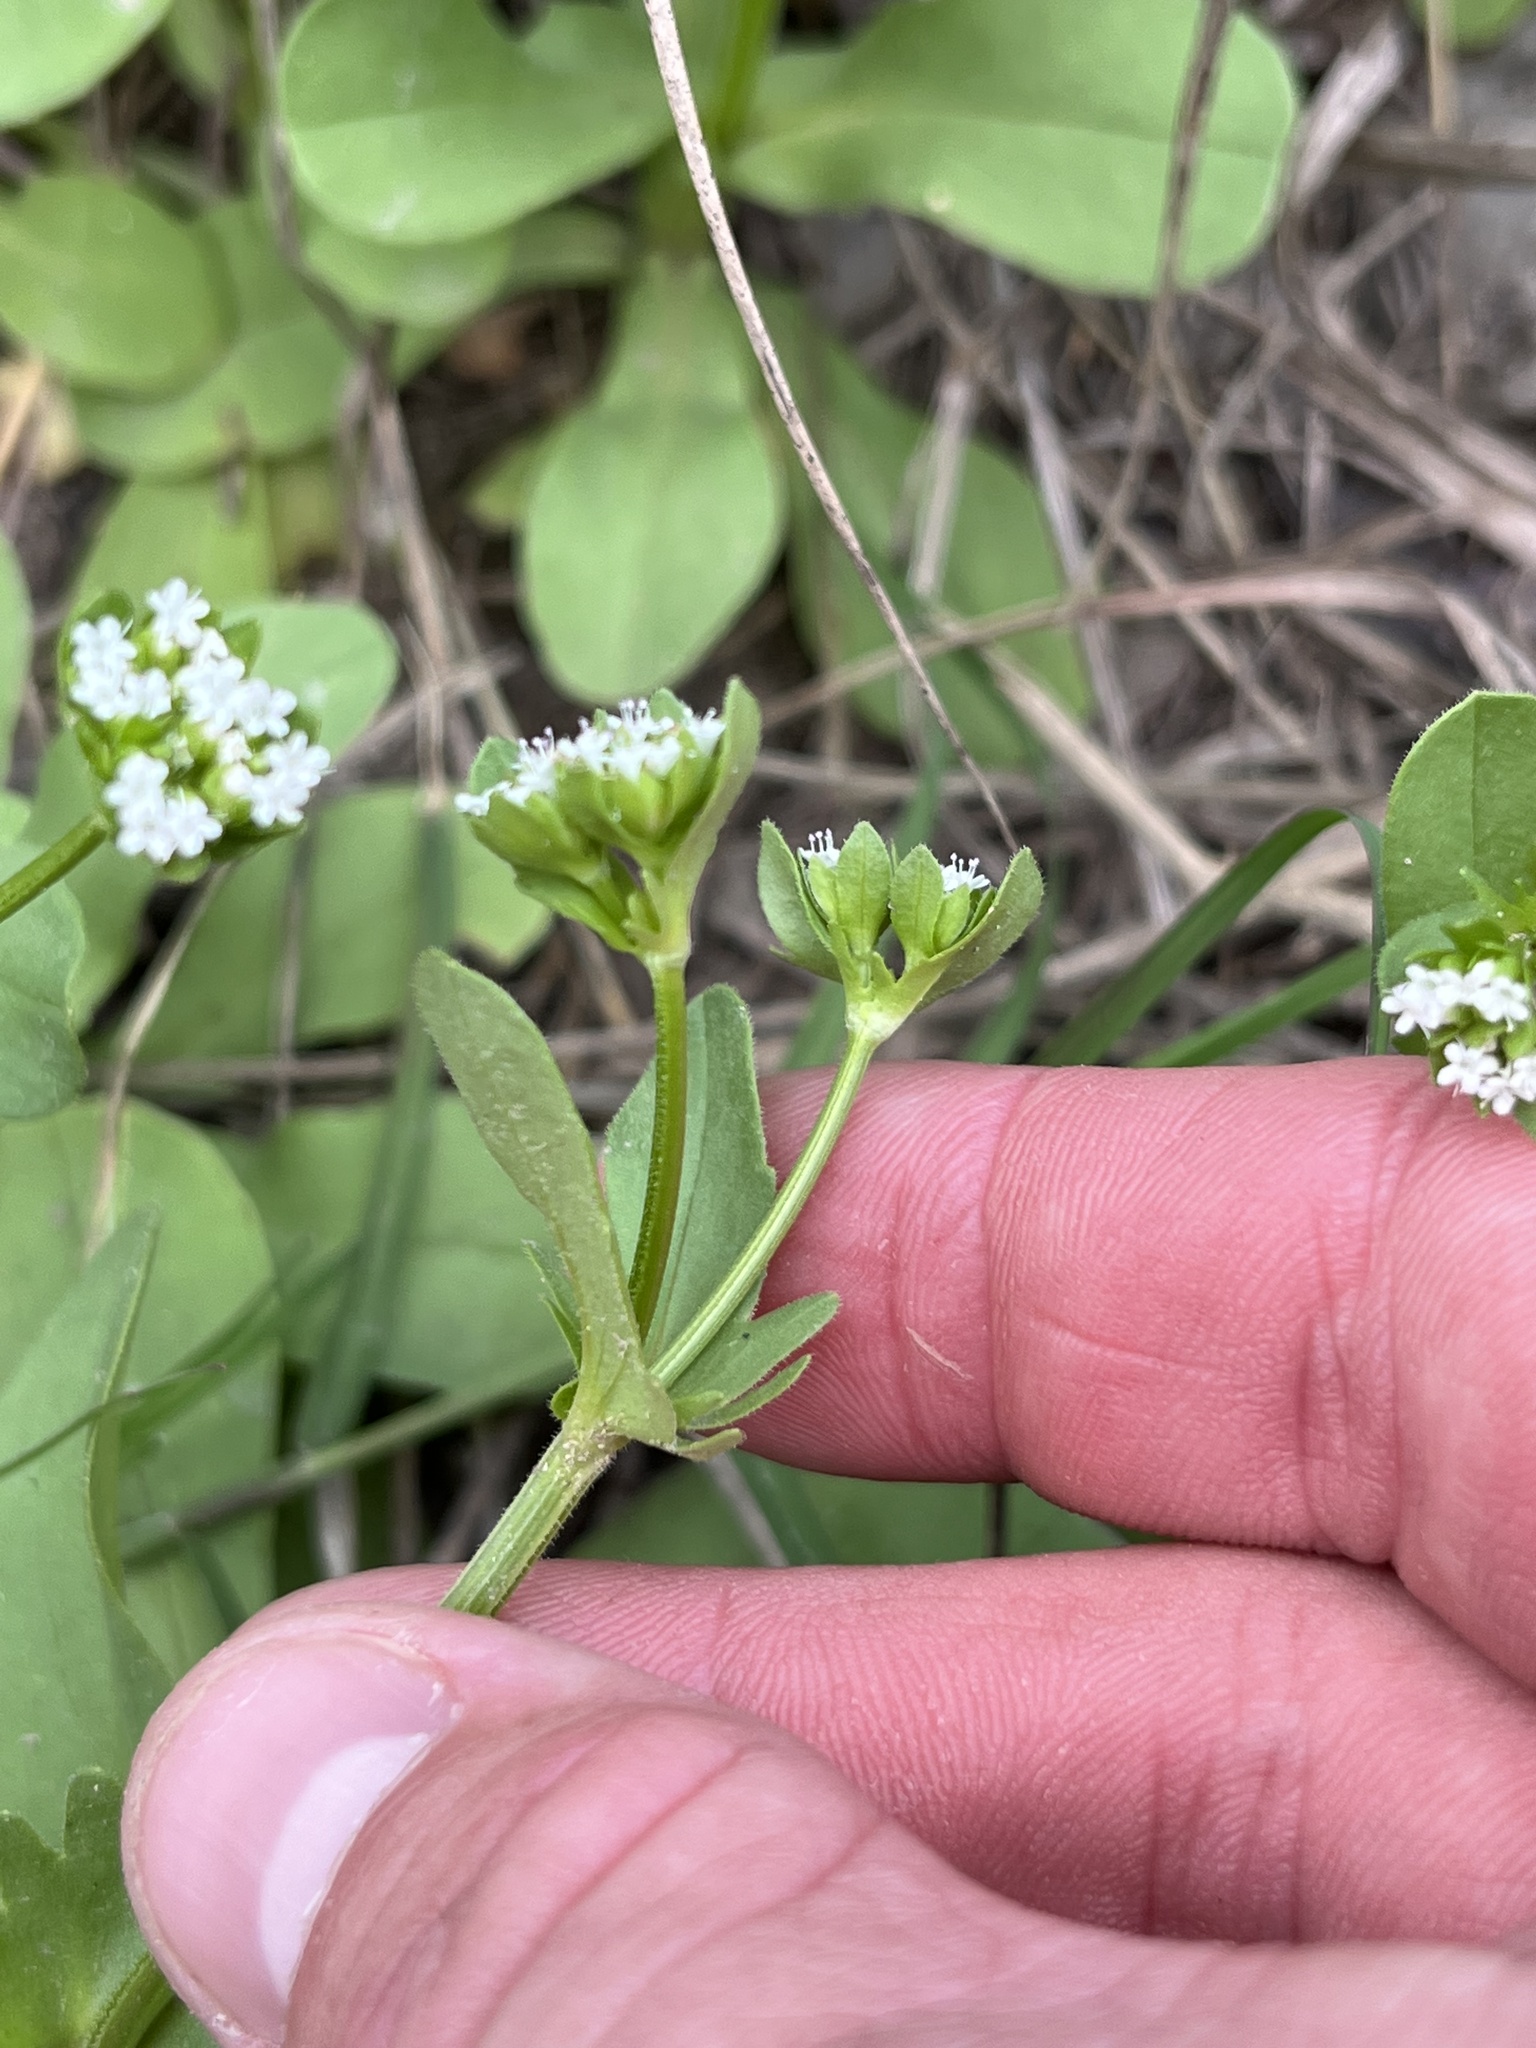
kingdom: Plantae
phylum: Tracheophyta
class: Magnoliopsida
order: Dipsacales
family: Caprifoliaceae
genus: Valerianella
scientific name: Valerianella radiata
